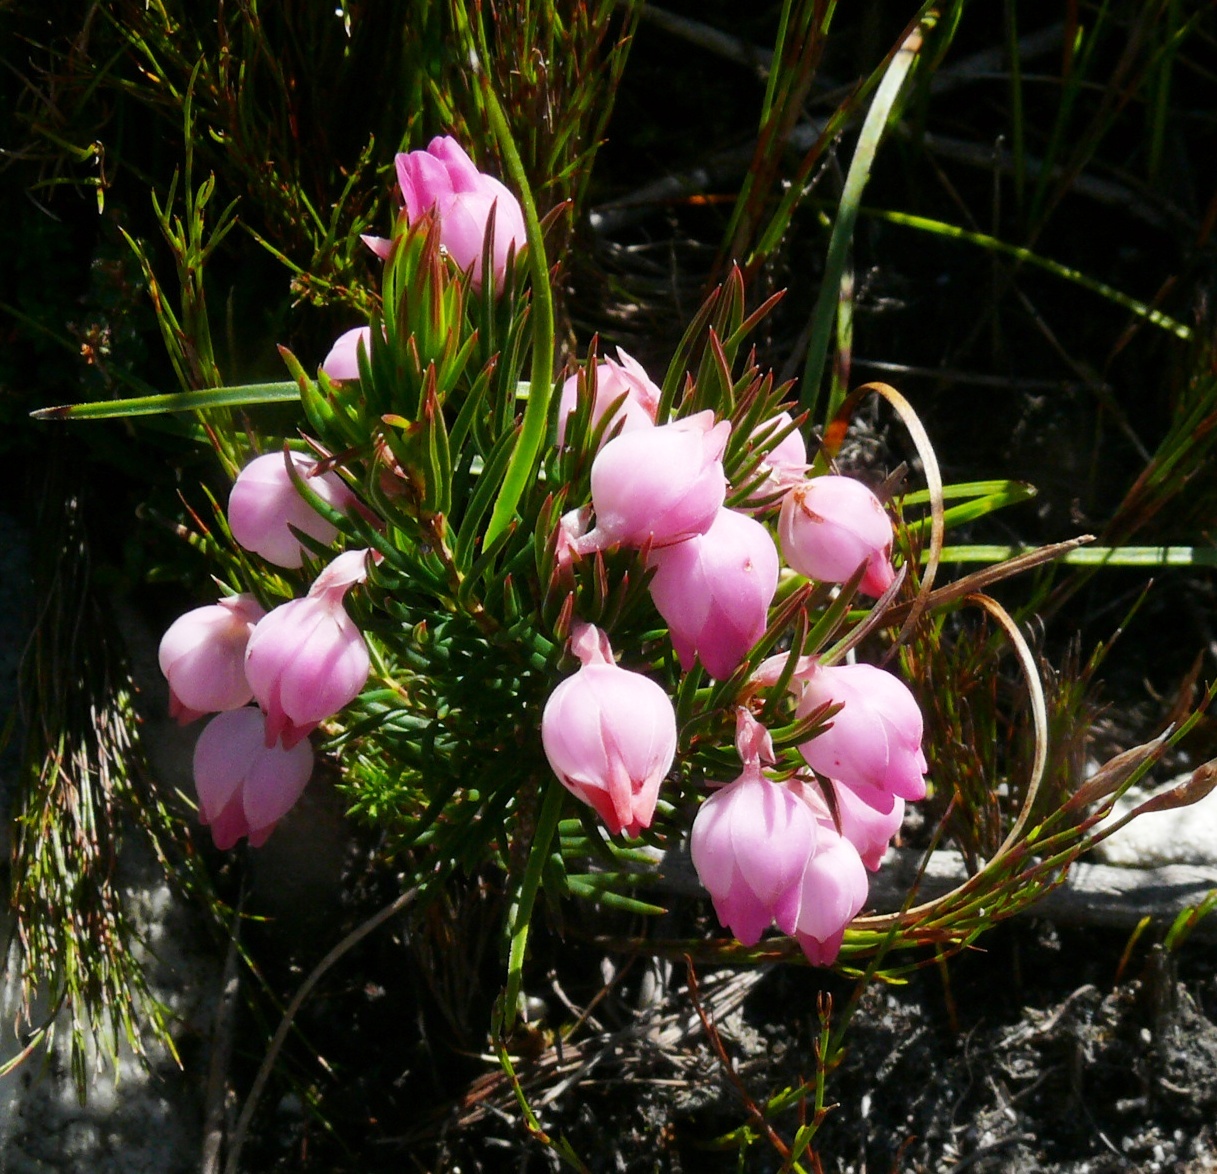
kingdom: Plantae
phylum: Tracheophyta
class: Magnoliopsida
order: Ericales
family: Ericaceae
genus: Erica
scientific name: Erica holosericea
